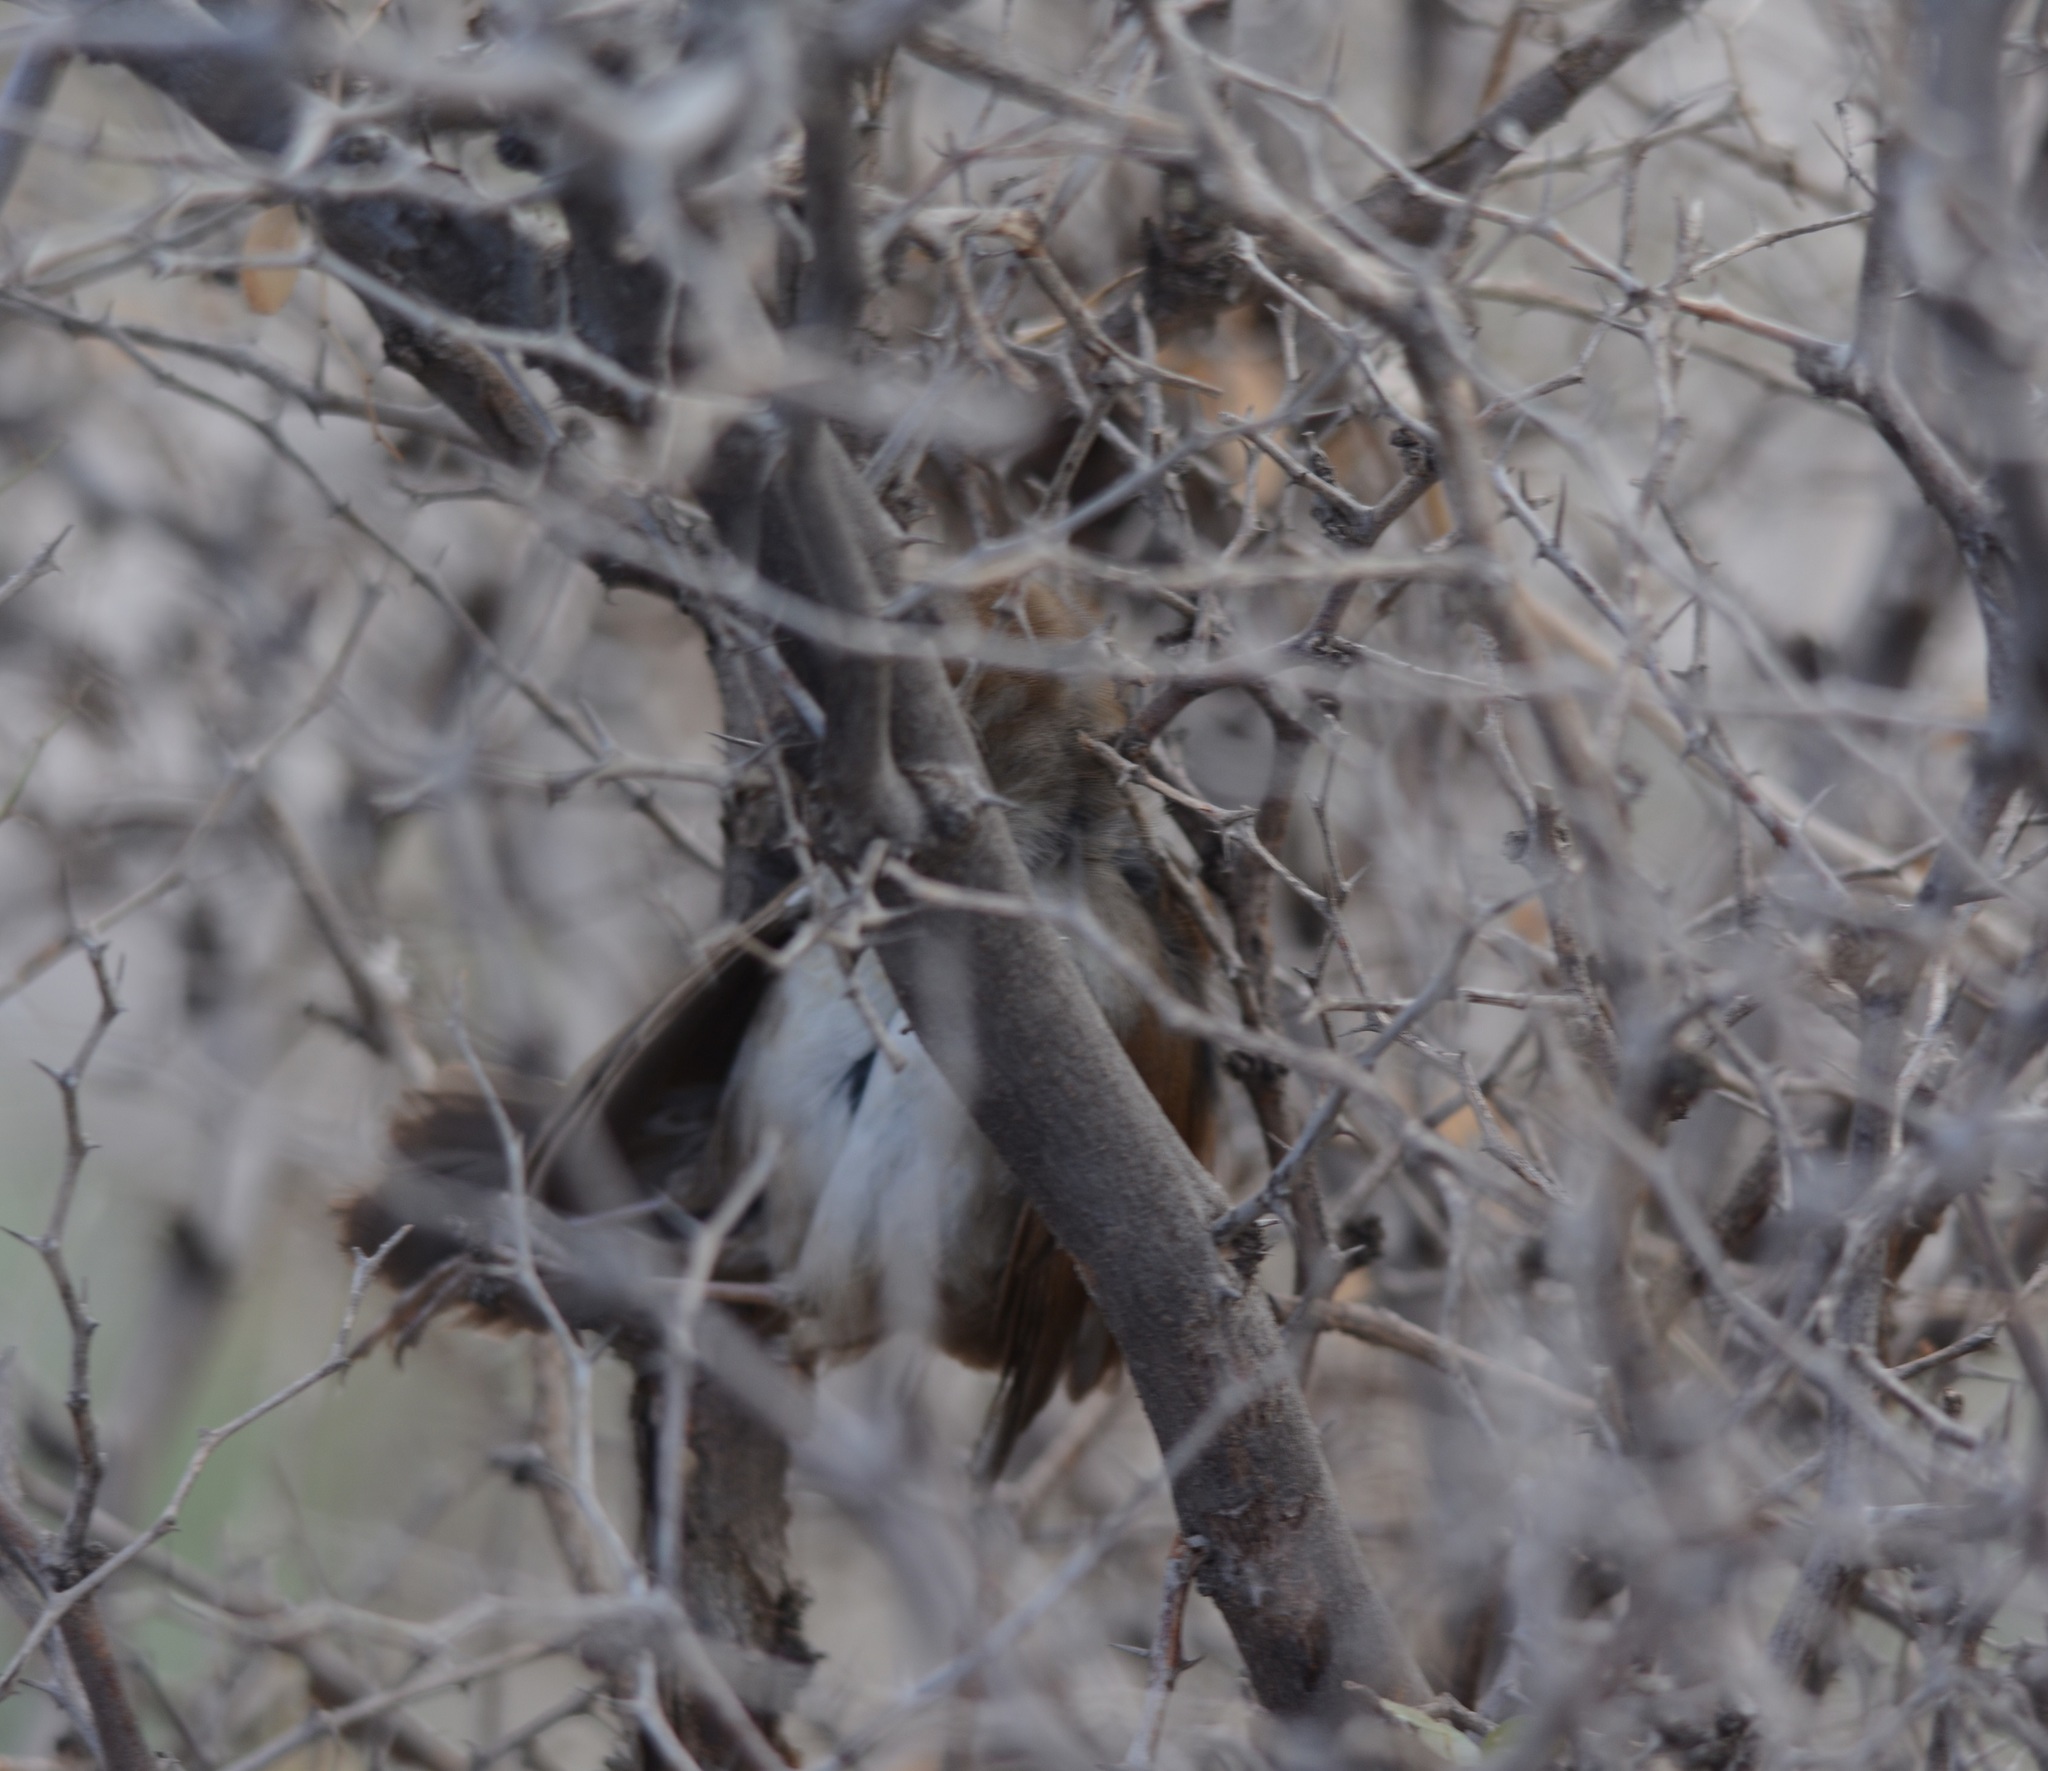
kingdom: Animalia
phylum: Chordata
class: Aves
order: Passeriformes
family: Cettiidae
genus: Cettia
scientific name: Cettia cetti
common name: Cetti's warbler
